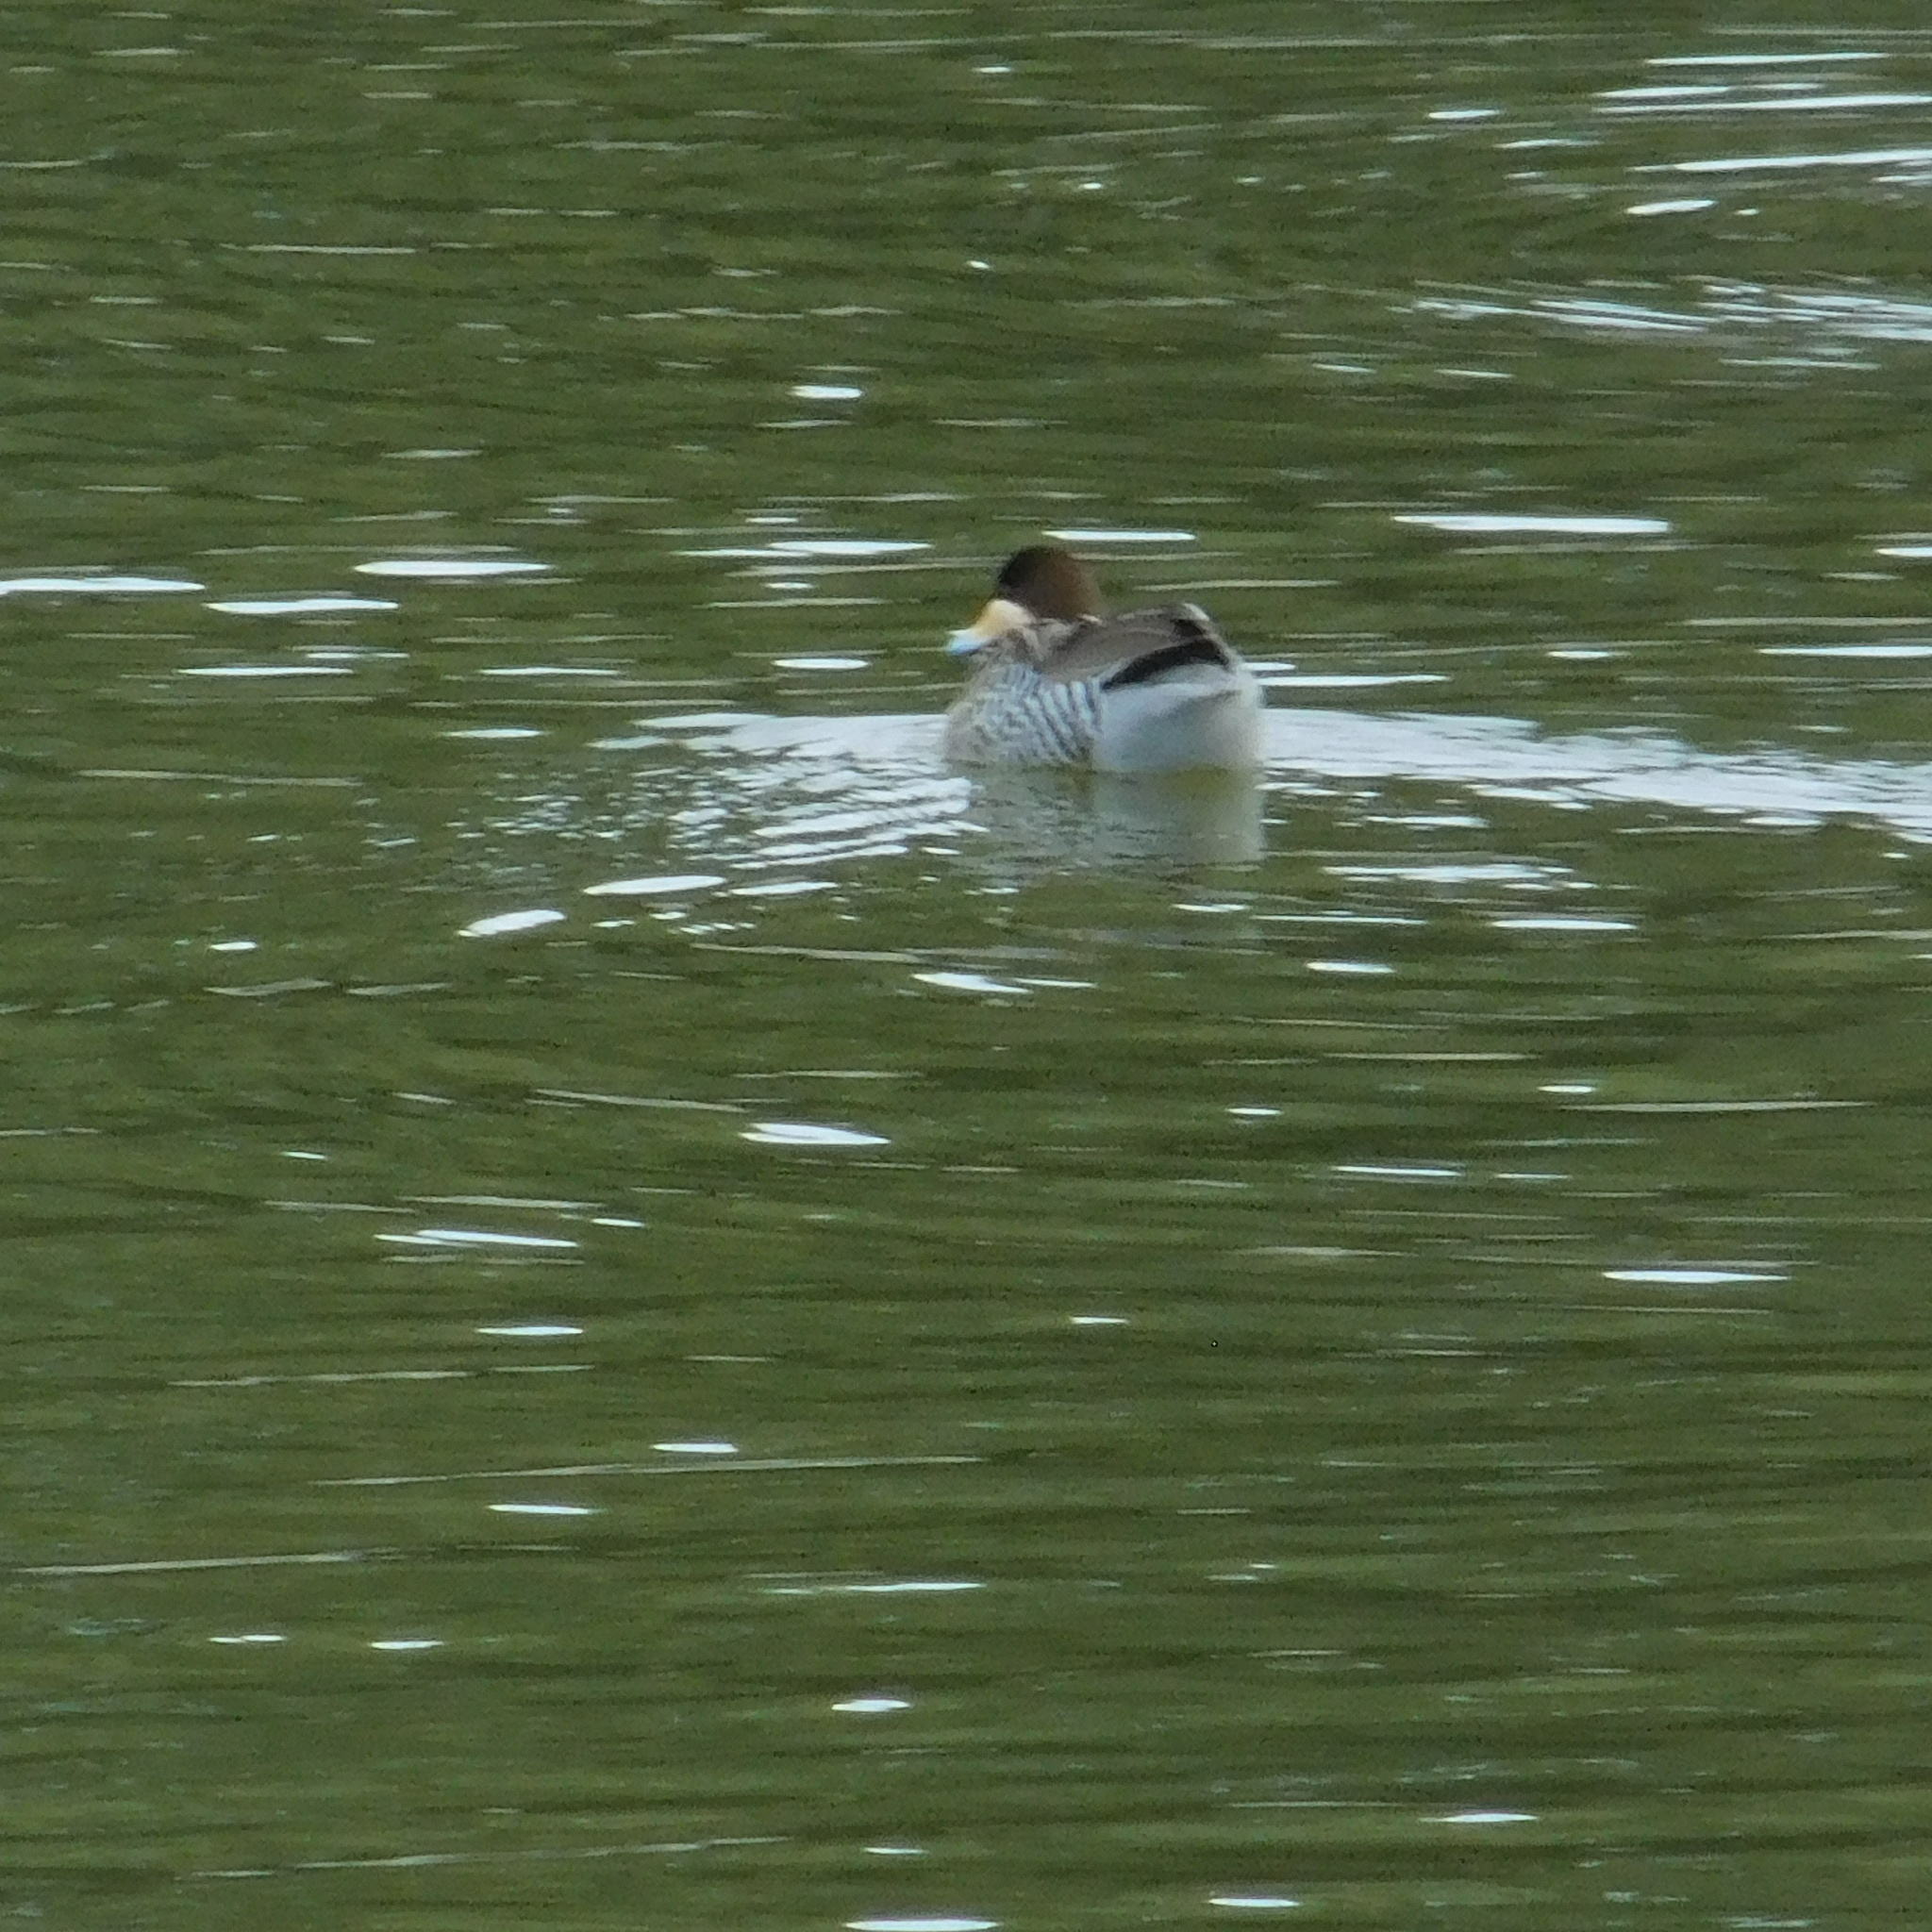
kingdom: Animalia
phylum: Chordata
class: Aves
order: Anseriformes
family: Anatidae
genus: Spatula
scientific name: Spatula versicolor
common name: Silver teal
